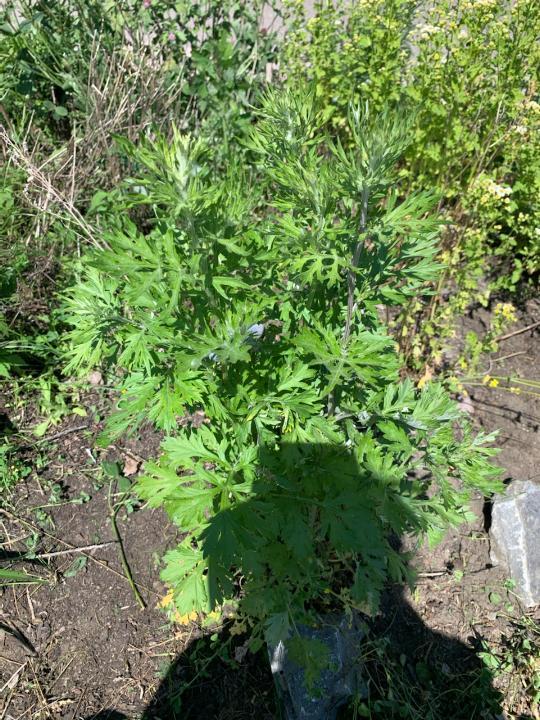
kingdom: Plantae
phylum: Tracheophyta
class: Magnoliopsida
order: Asterales
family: Asteraceae
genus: Artemisia
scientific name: Artemisia vulgaris
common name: Mugwort
